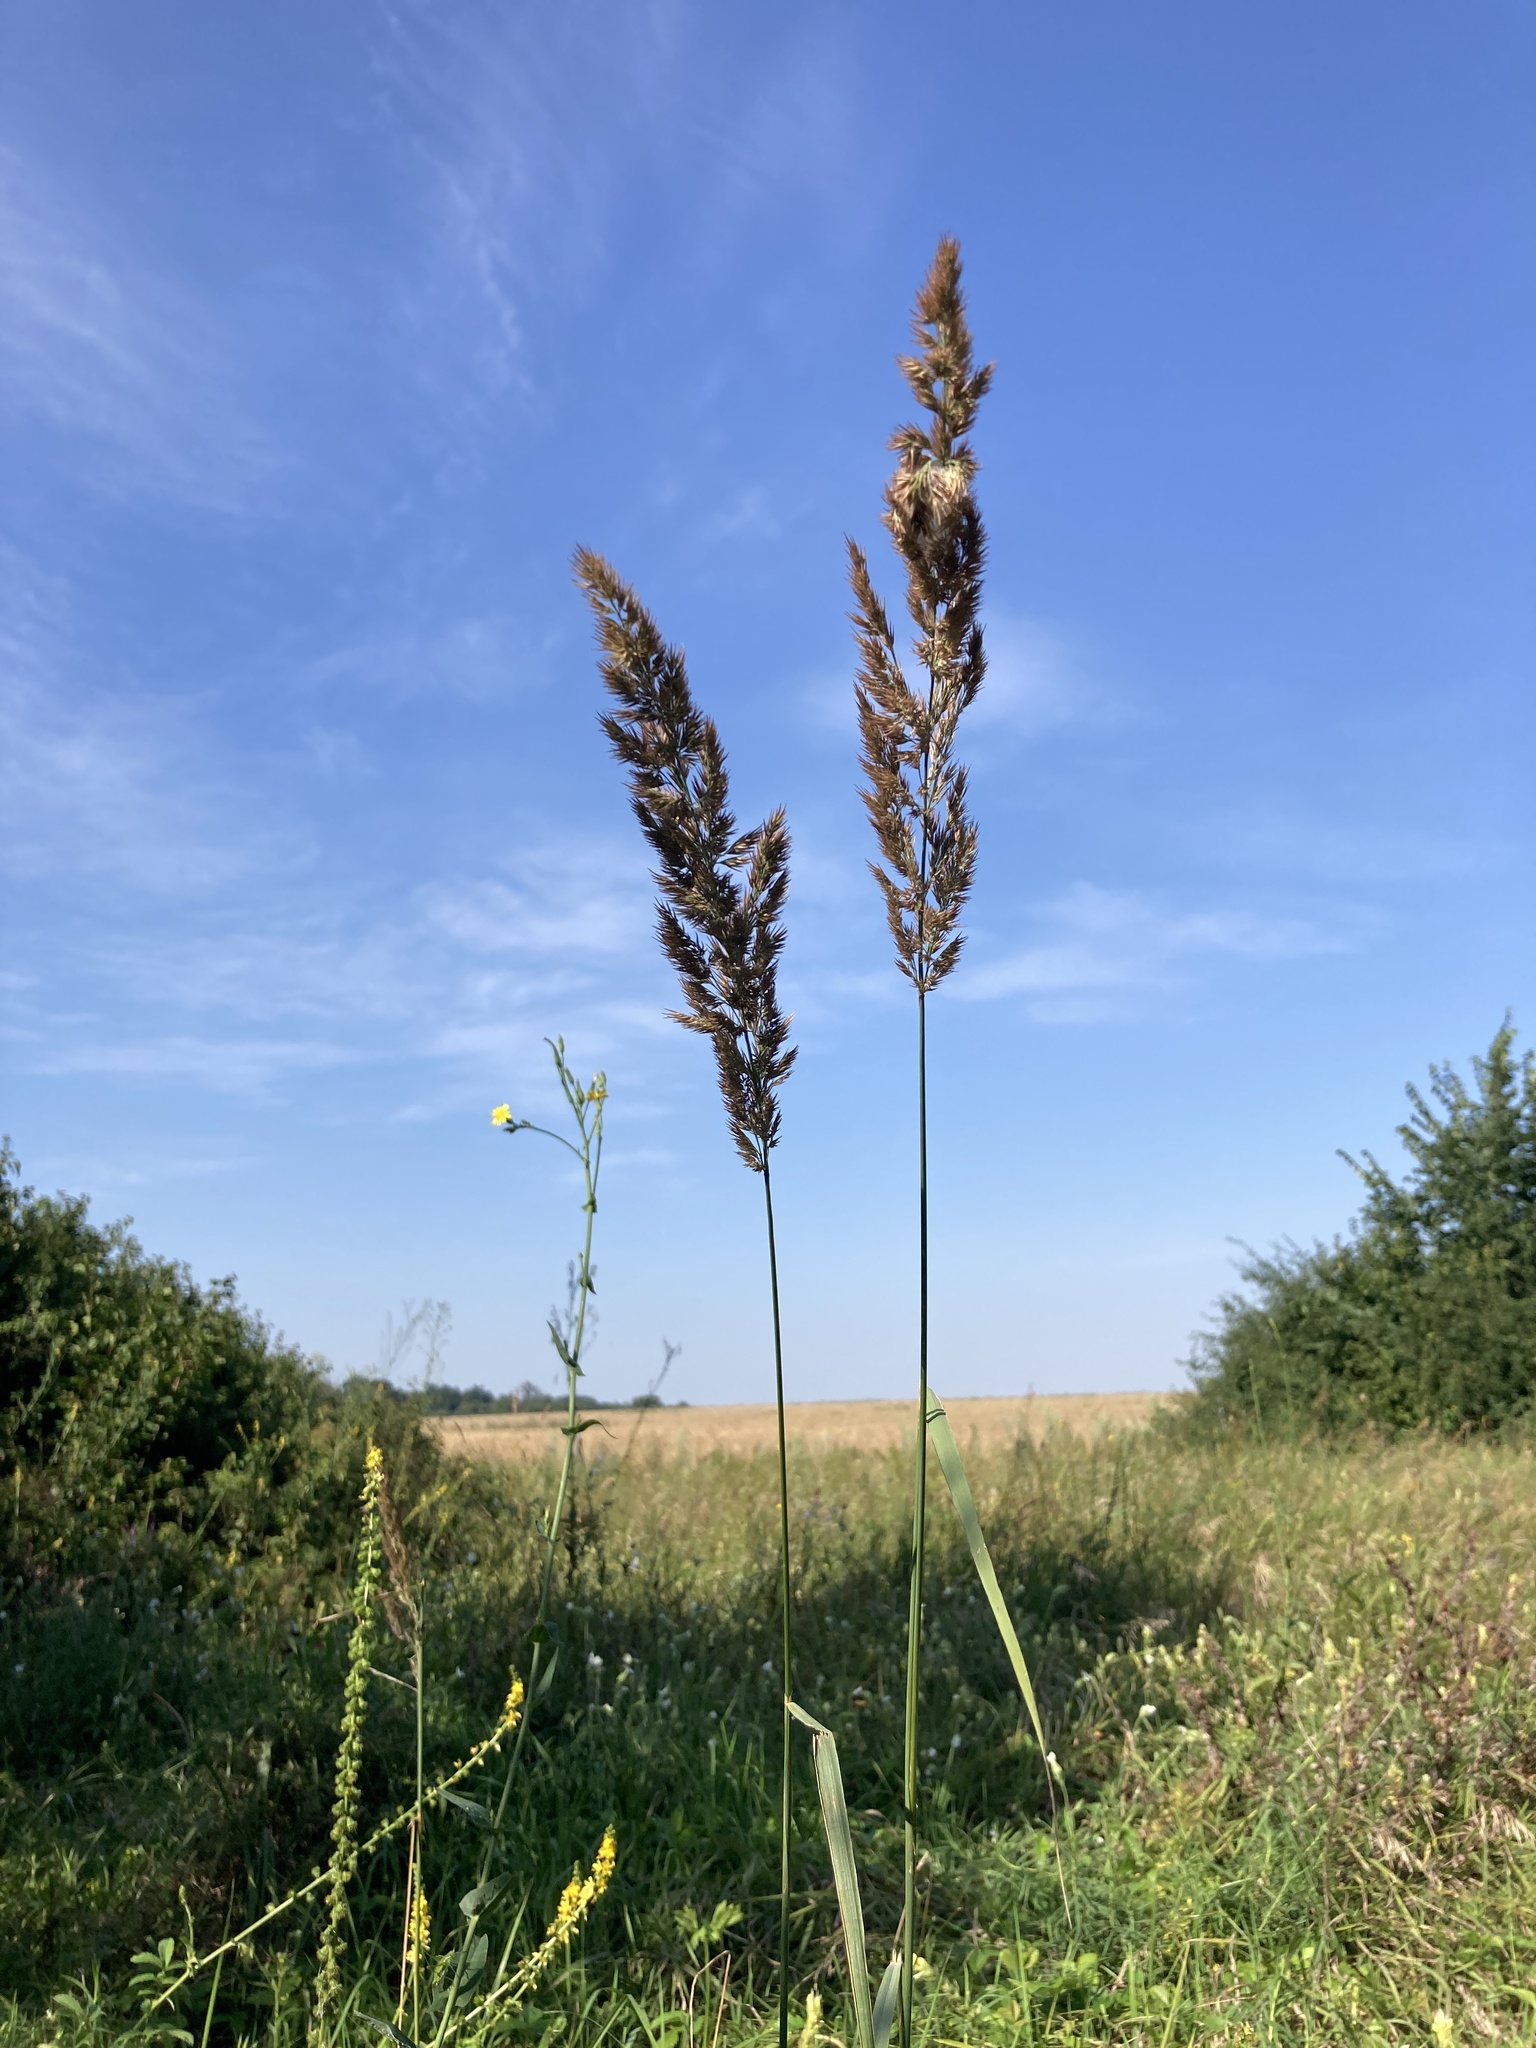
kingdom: Plantae
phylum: Tracheophyta
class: Liliopsida
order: Poales
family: Poaceae
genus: Calamagrostis
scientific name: Calamagrostis epigejos
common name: Wood small-reed
